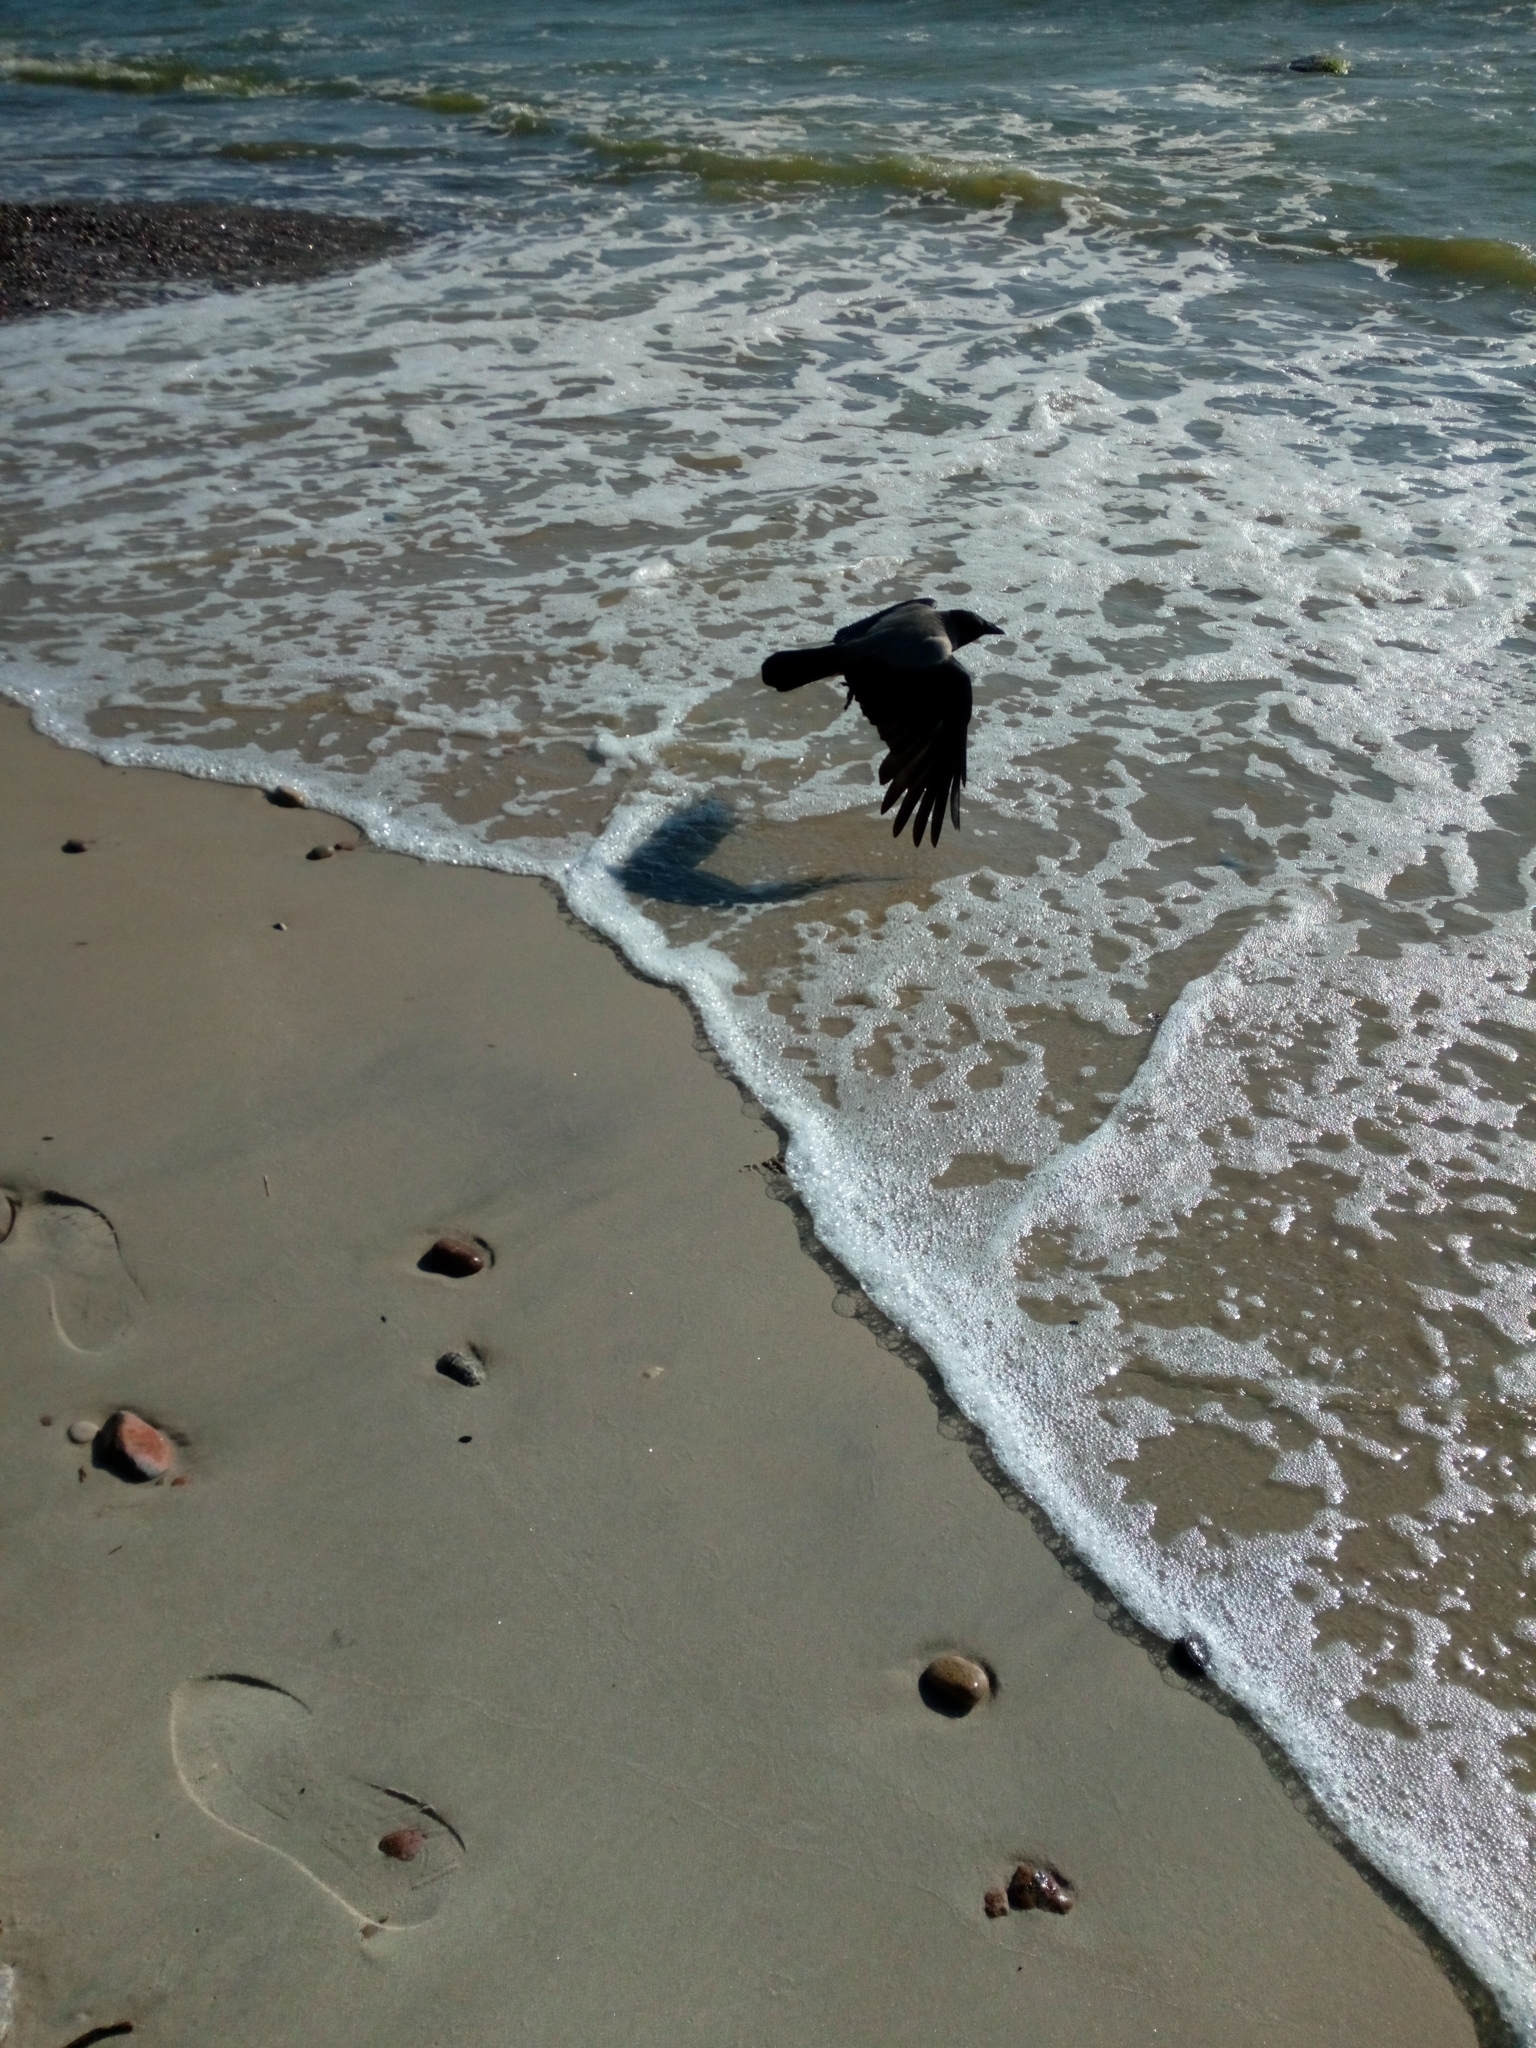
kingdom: Animalia
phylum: Chordata
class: Aves
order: Passeriformes
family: Corvidae
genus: Corvus
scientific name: Corvus cornix
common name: Hooded crow
